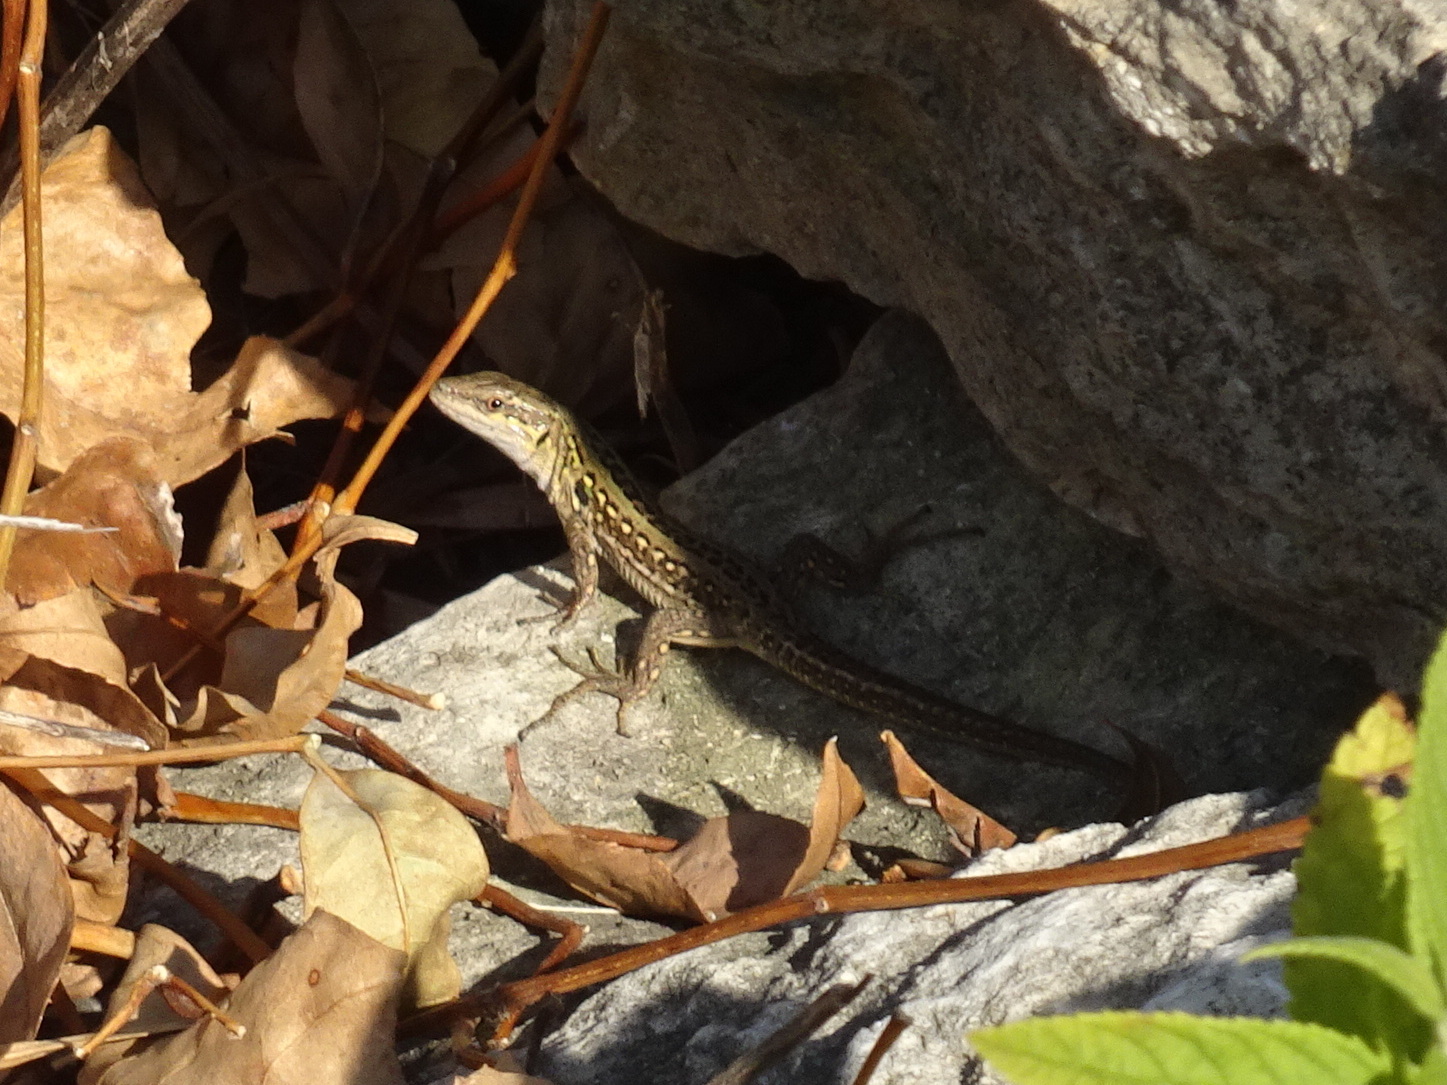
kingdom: Animalia
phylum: Chordata
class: Squamata
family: Lacertidae
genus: Podarcis
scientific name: Podarcis siculus
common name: Italian wall lizard
